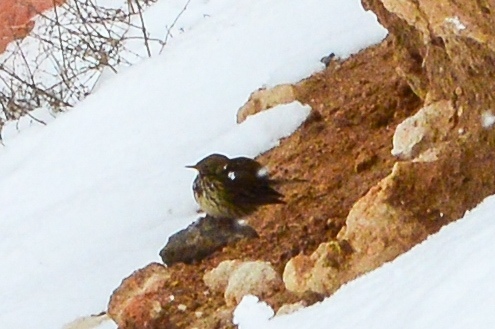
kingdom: Animalia
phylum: Chordata
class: Aves
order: Passeriformes
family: Motacillidae
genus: Anthus
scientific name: Anthus pratensis
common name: Meadow pipit
